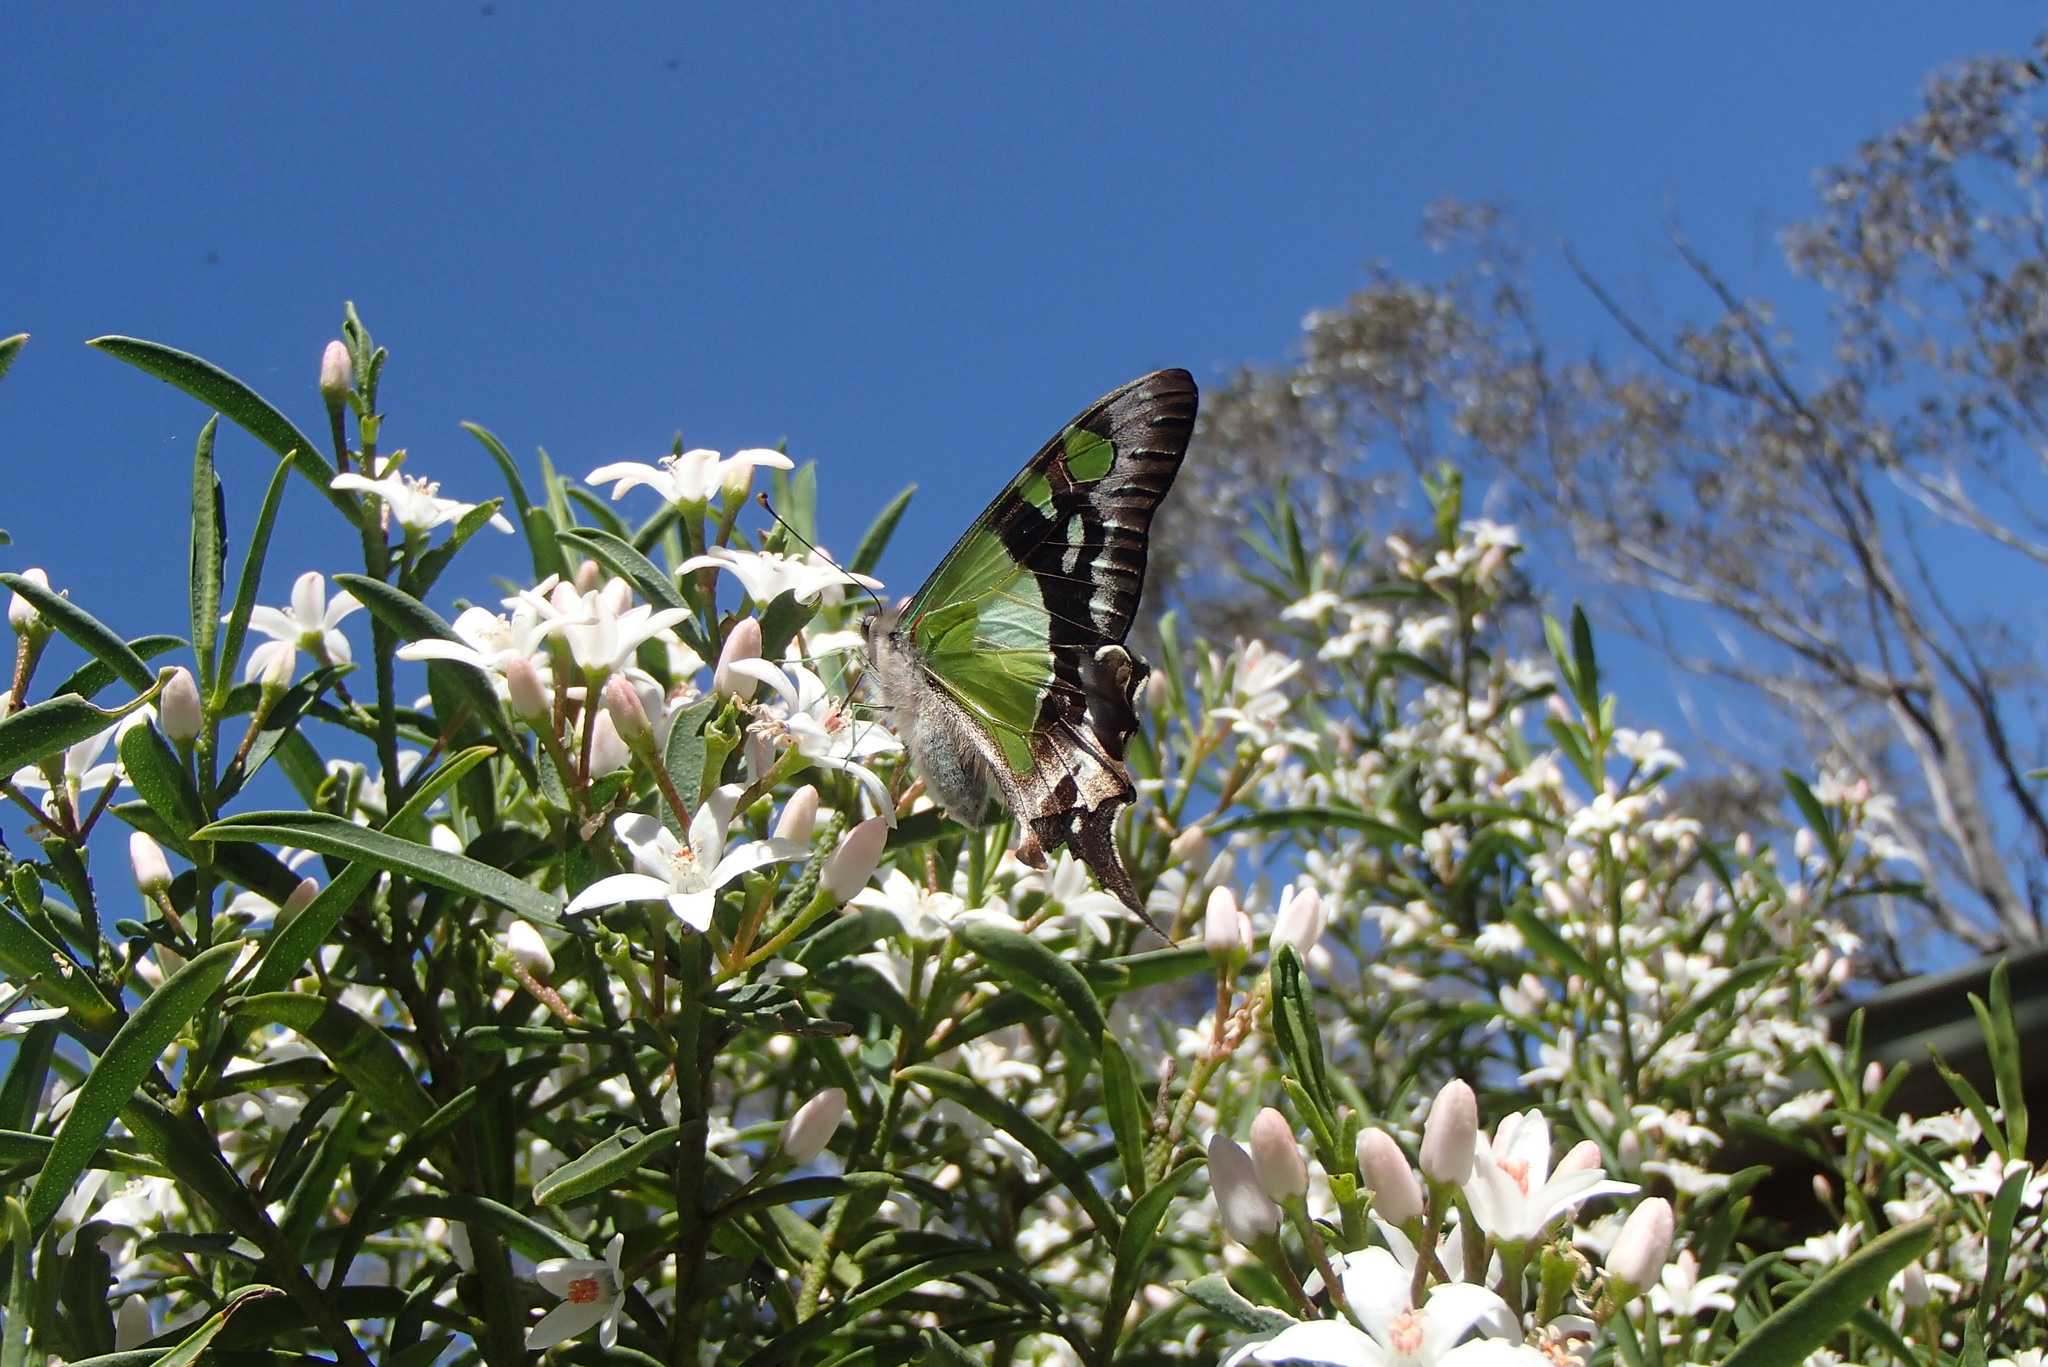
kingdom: Animalia
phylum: Arthropoda
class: Insecta
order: Lepidoptera
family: Papilionidae
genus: Graphium
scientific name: Graphium macleayanus
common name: Macleay's swallowtail
